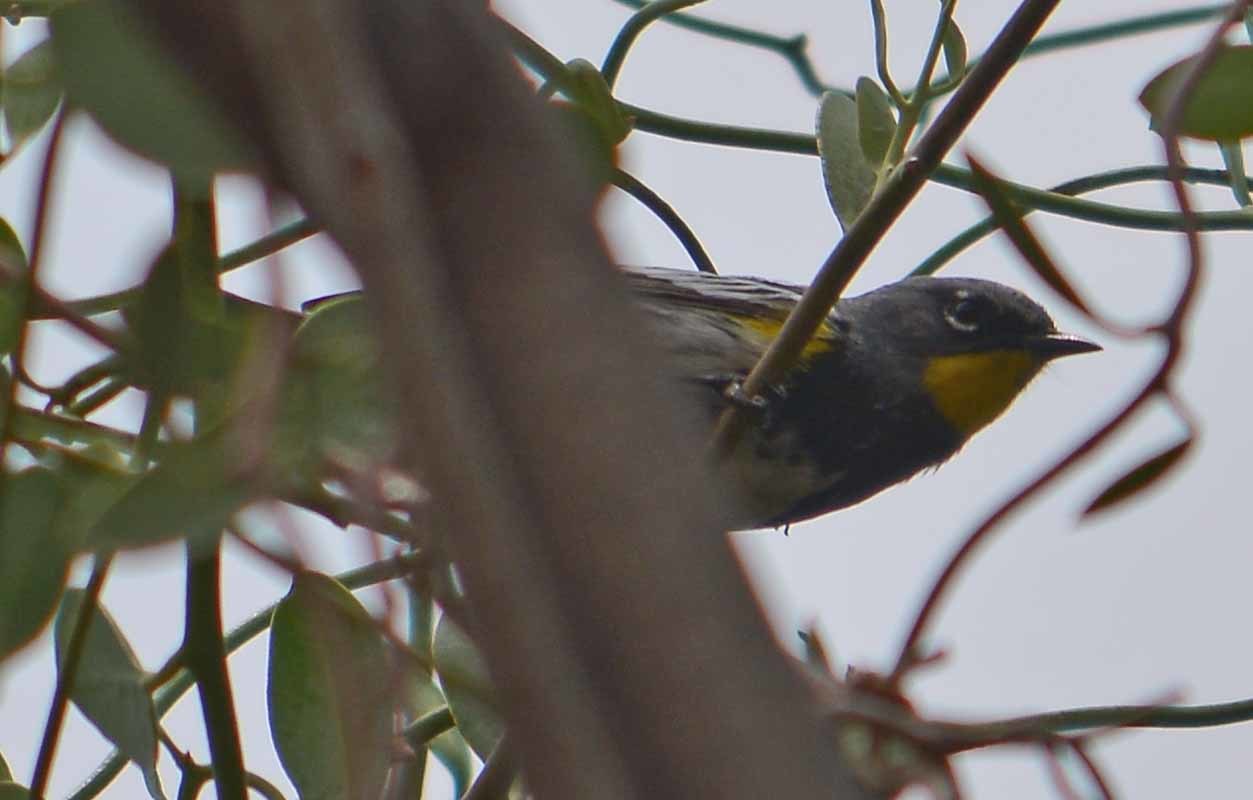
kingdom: Animalia
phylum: Chordata
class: Aves
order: Passeriformes
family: Parulidae
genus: Setophaga
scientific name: Setophaga auduboni
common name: Audubon's warbler
